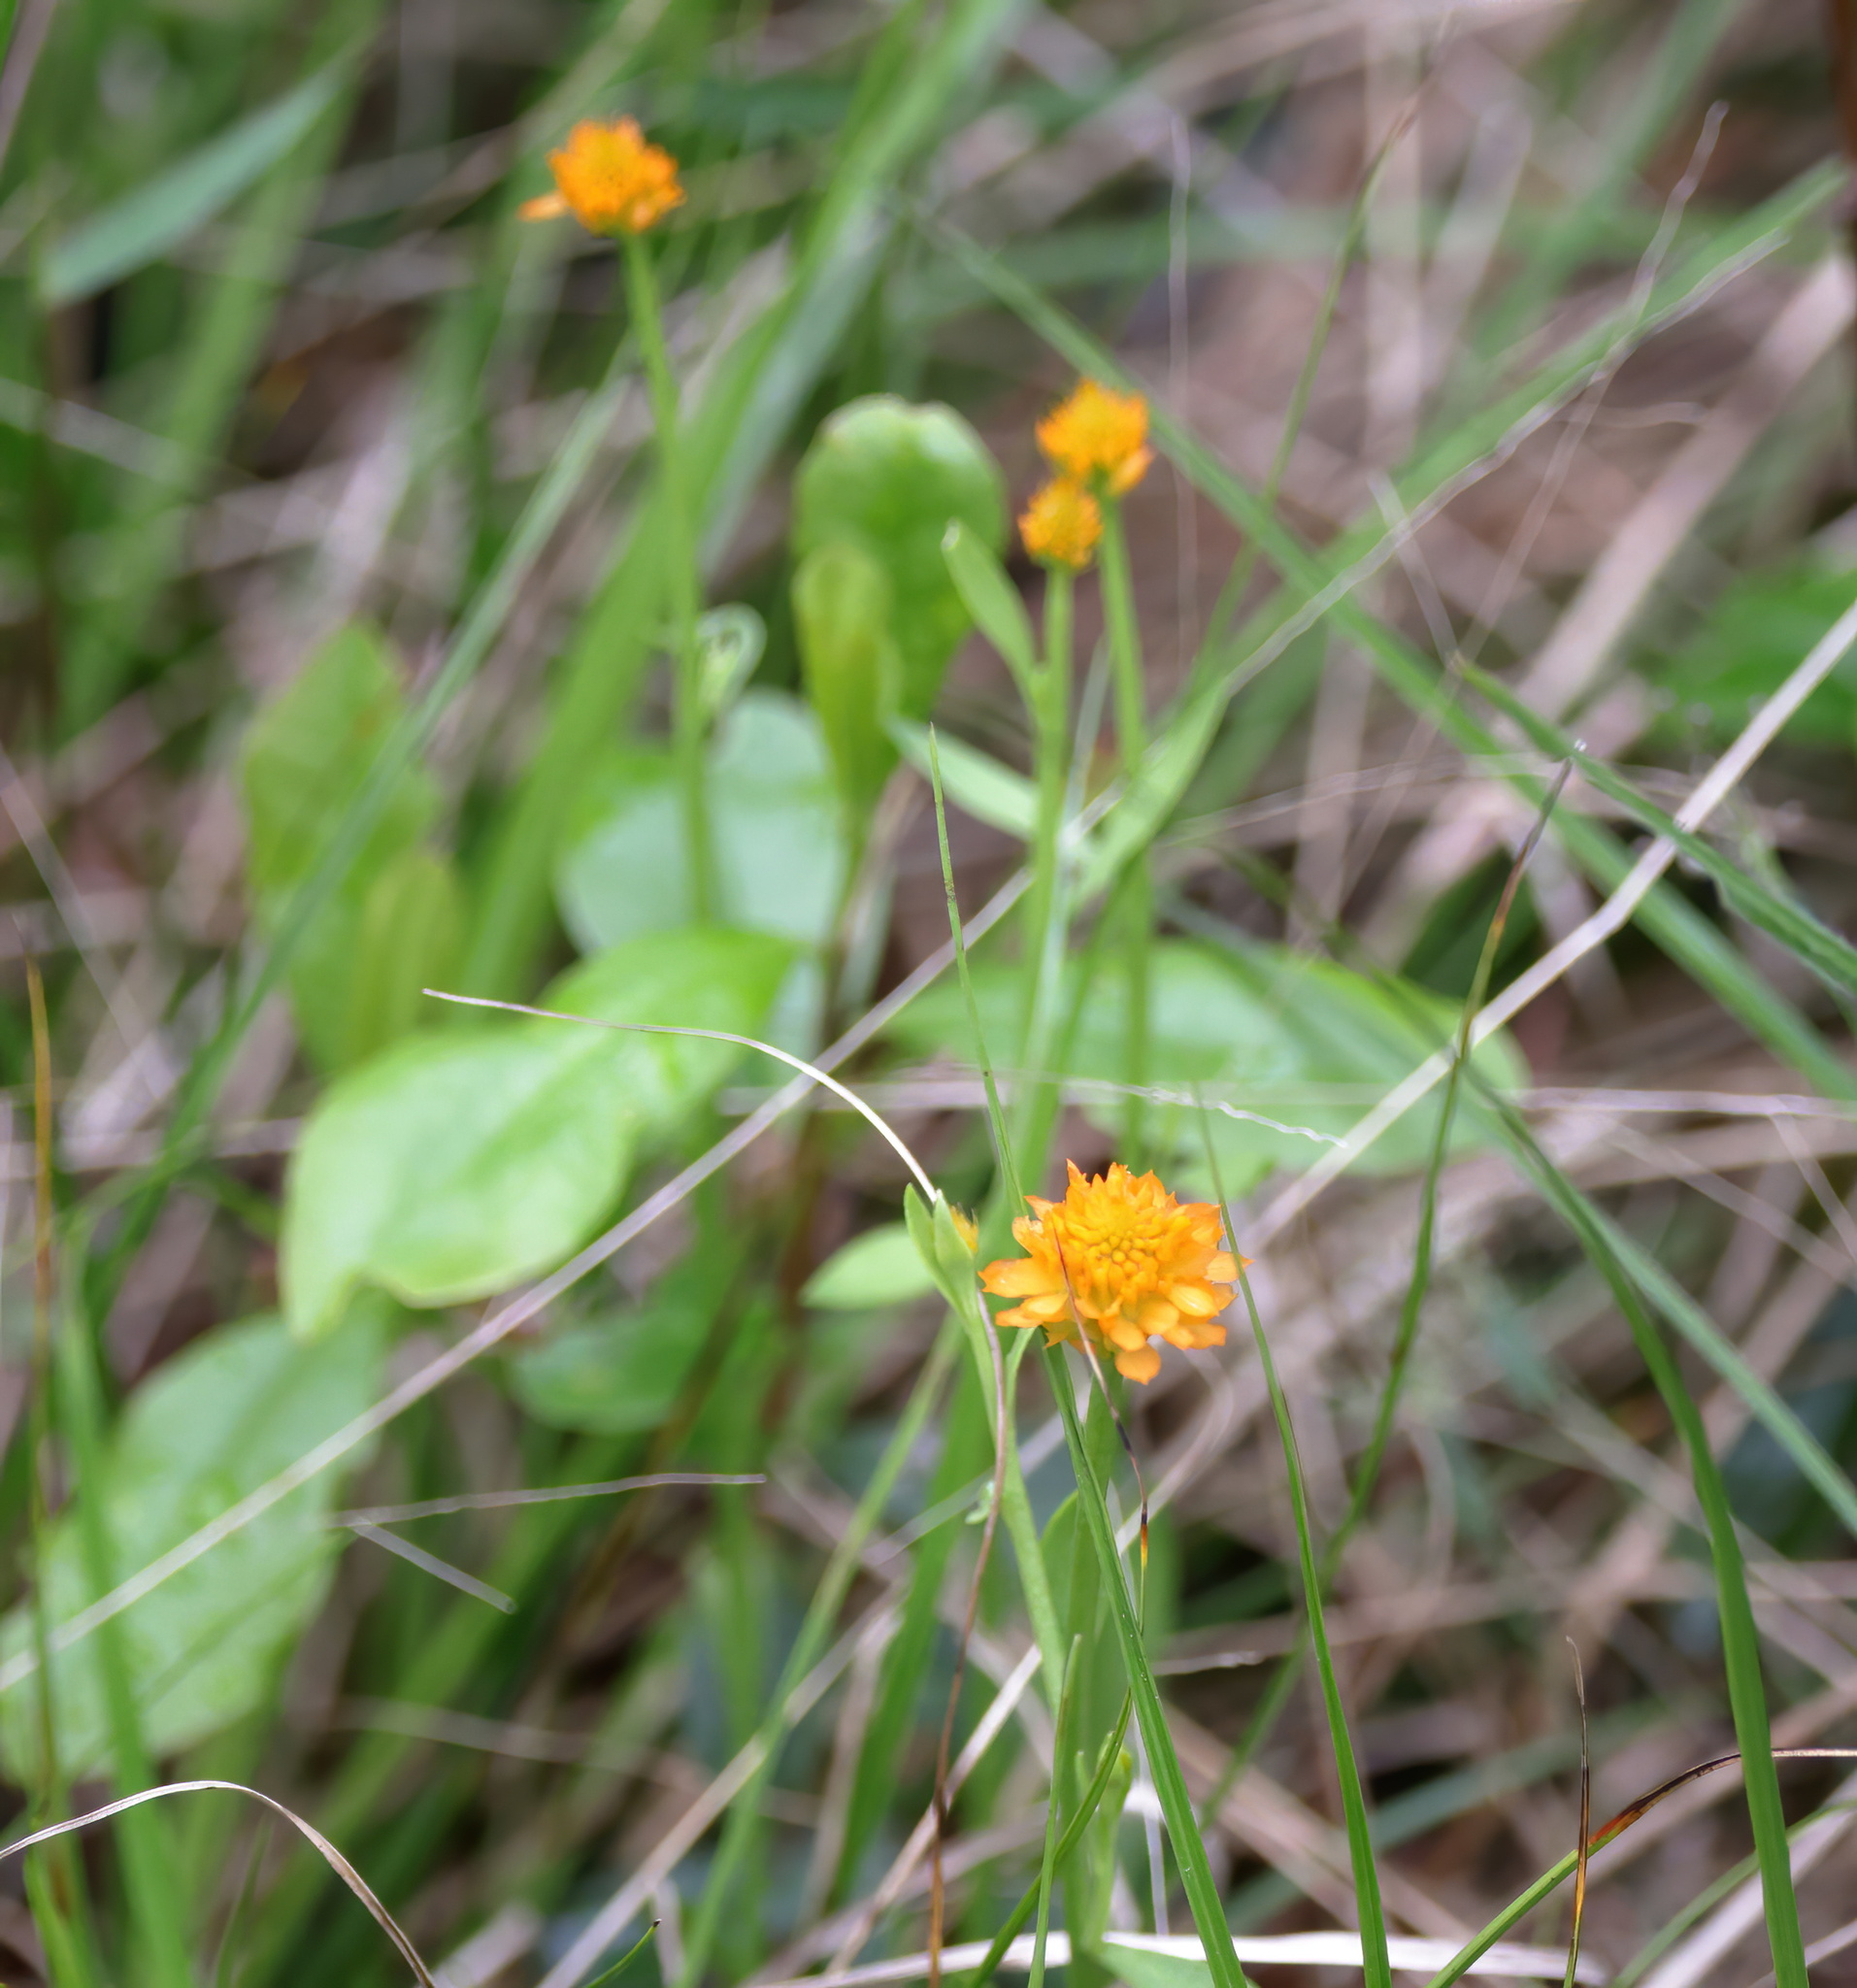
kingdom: Plantae
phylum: Tracheophyta
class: Magnoliopsida
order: Fabales
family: Polygalaceae
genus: Polygala
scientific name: Polygala lutea
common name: Orange milkwort
